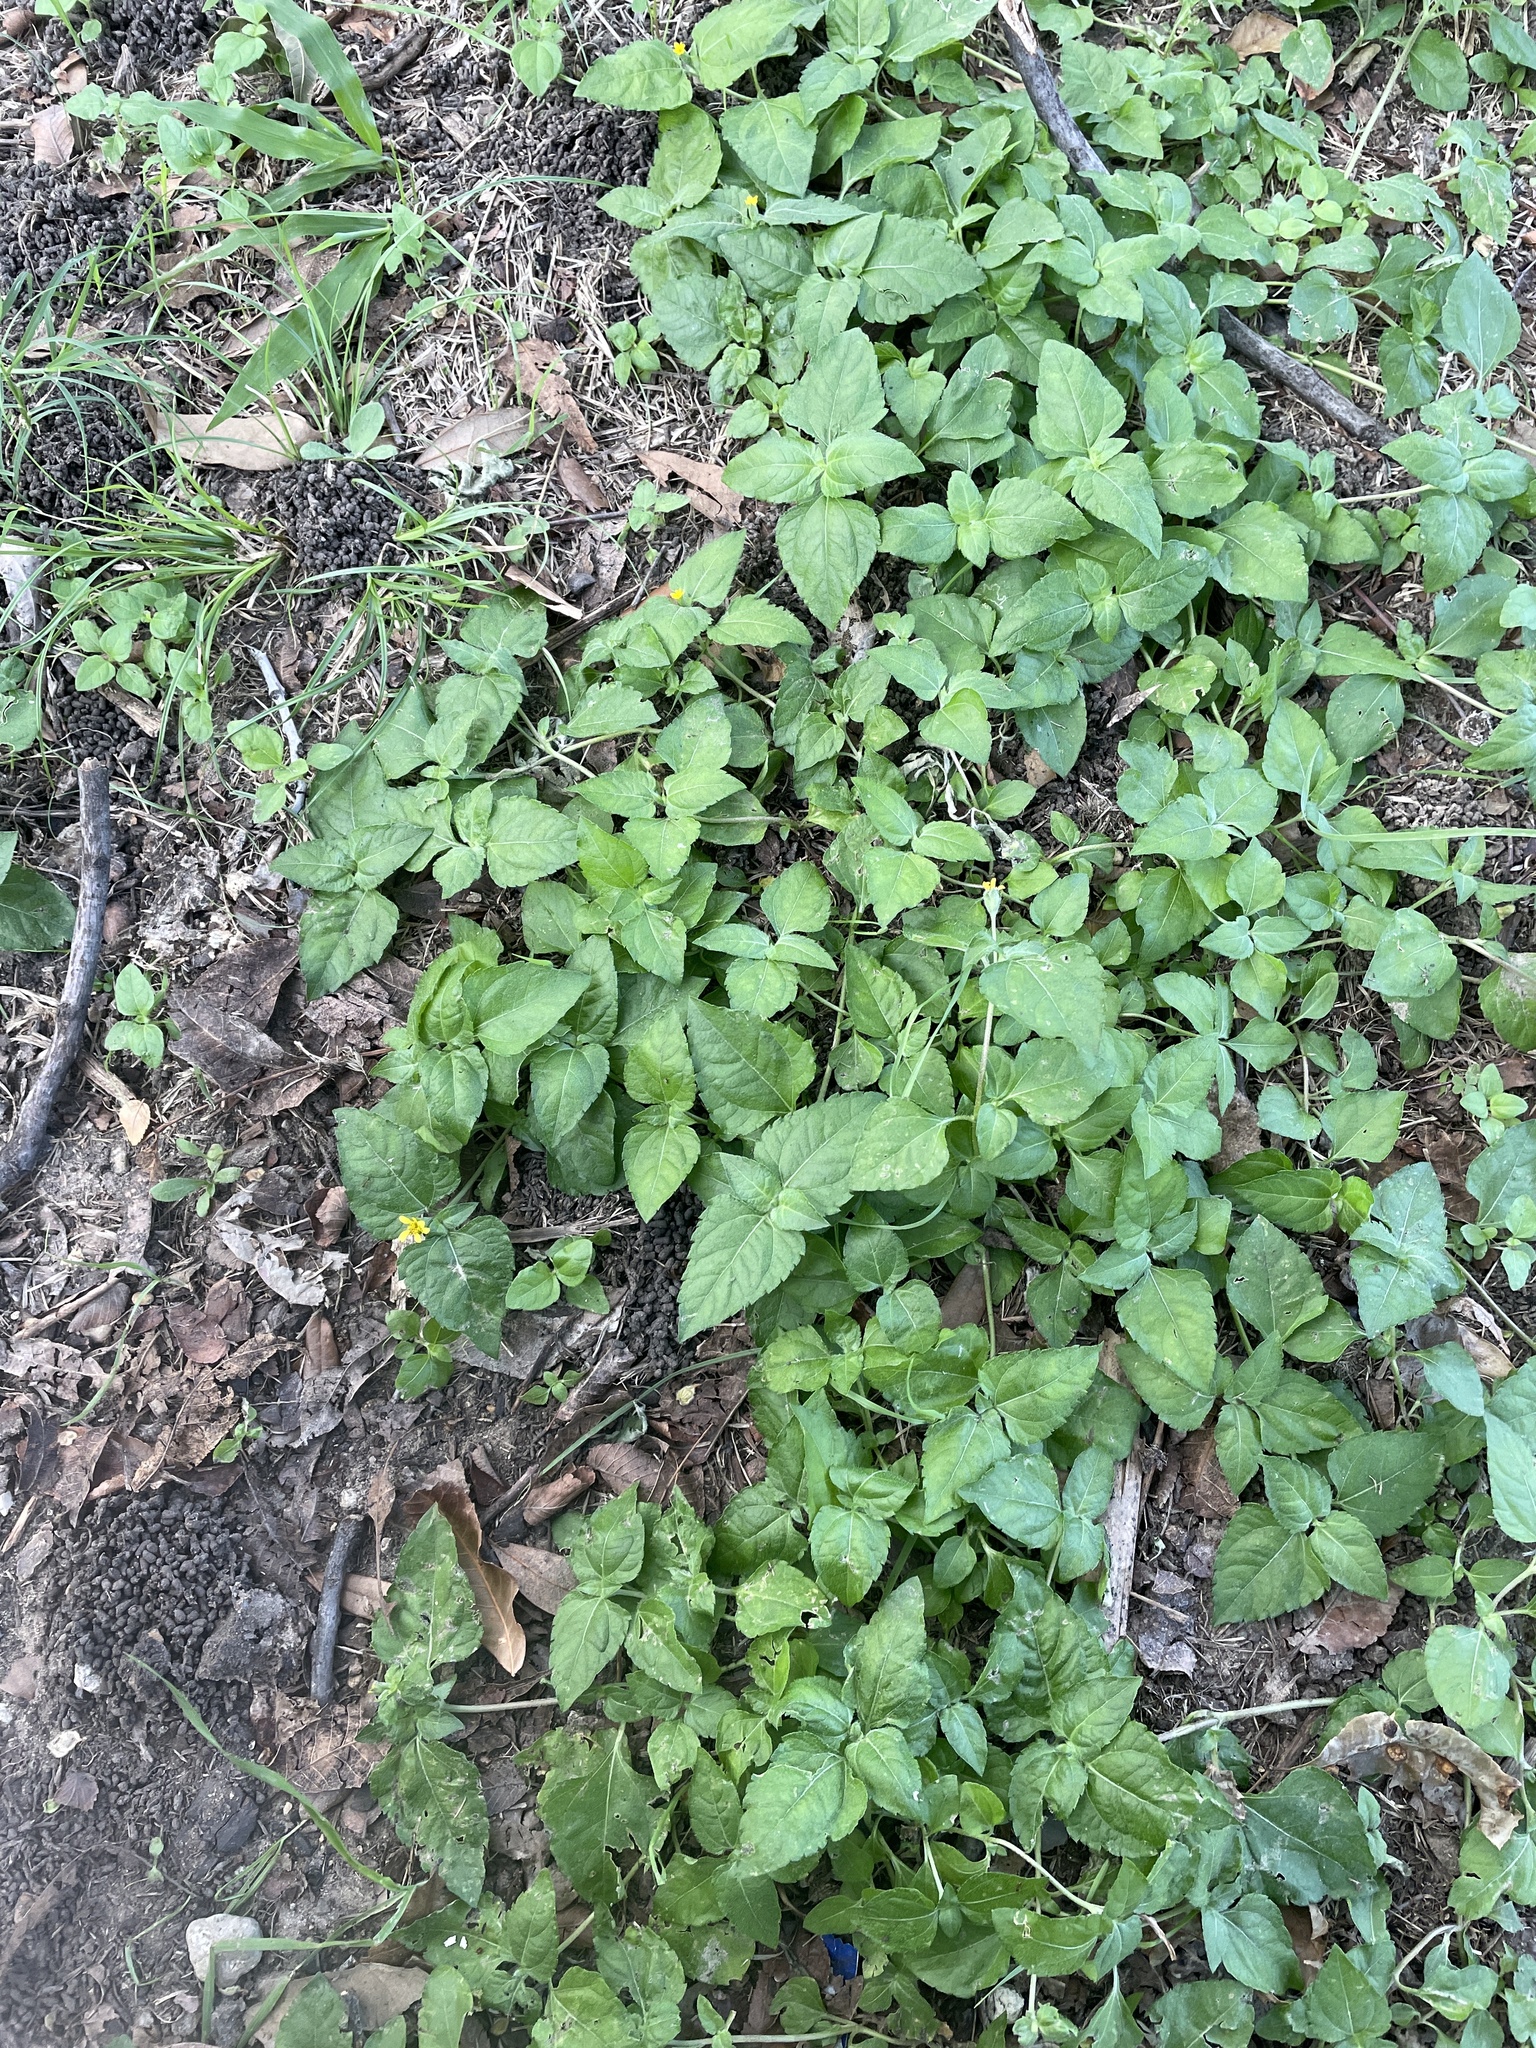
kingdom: Plantae
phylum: Tracheophyta
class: Magnoliopsida
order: Asterales
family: Asteraceae
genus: Calyptocarpus
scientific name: Calyptocarpus vialis
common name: Straggler daisy
